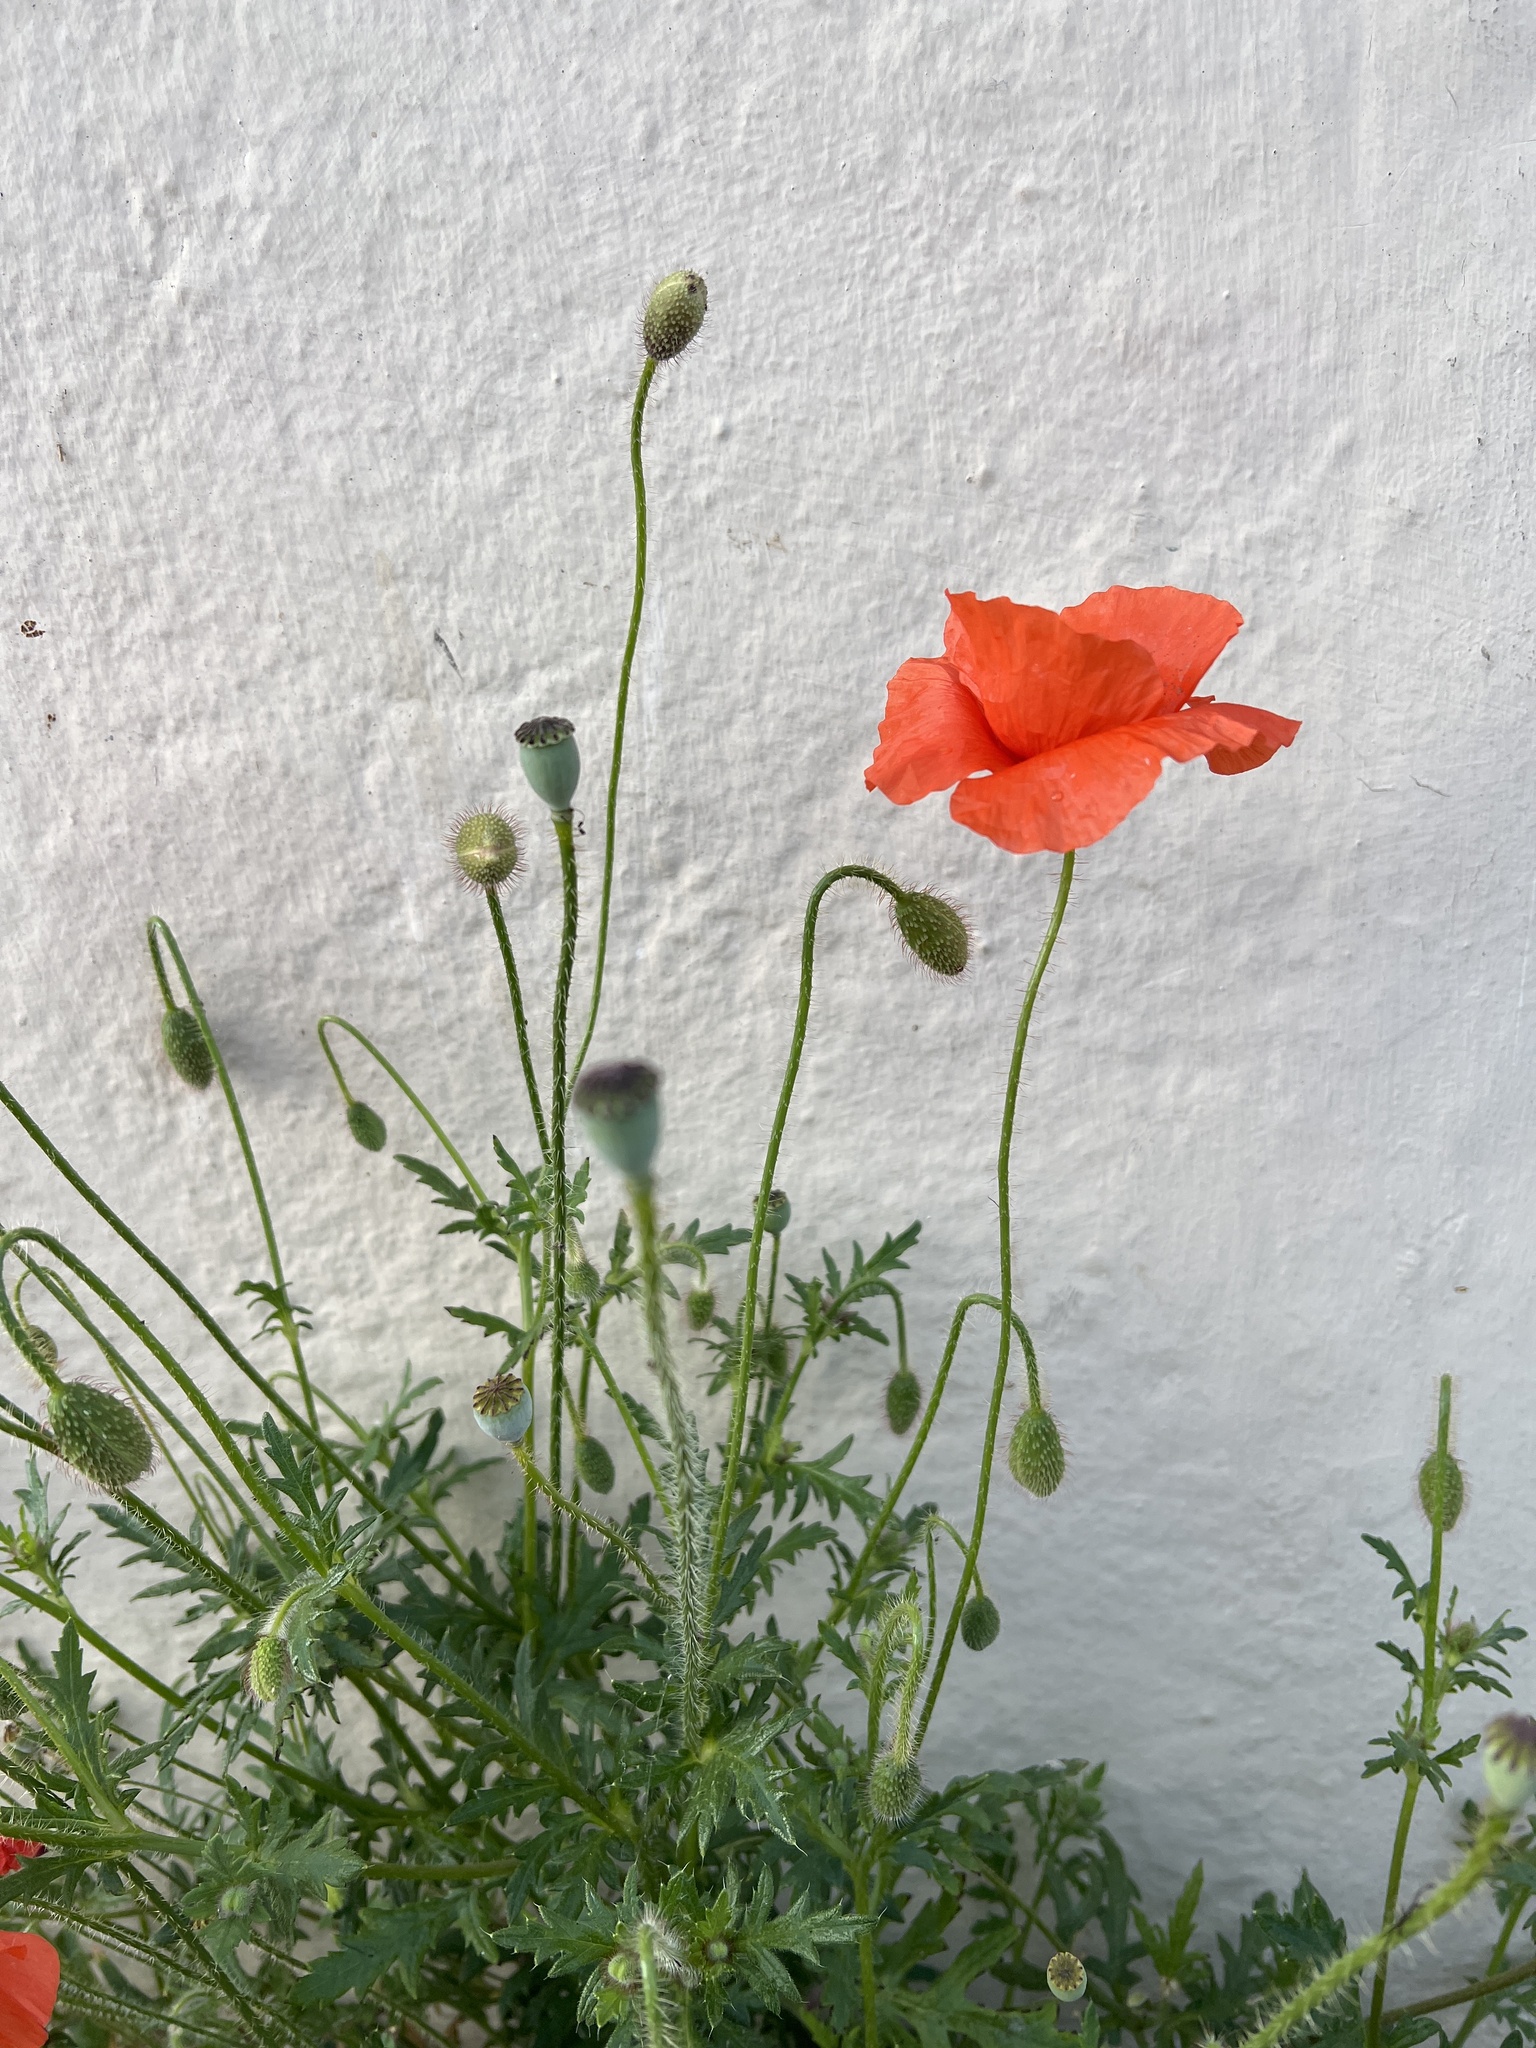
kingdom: Plantae
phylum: Tracheophyta
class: Magnoliopsida
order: Ranunculales
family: Papaveraceae
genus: Papaver
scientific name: Papaver rhoeas
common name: Corn poppy
